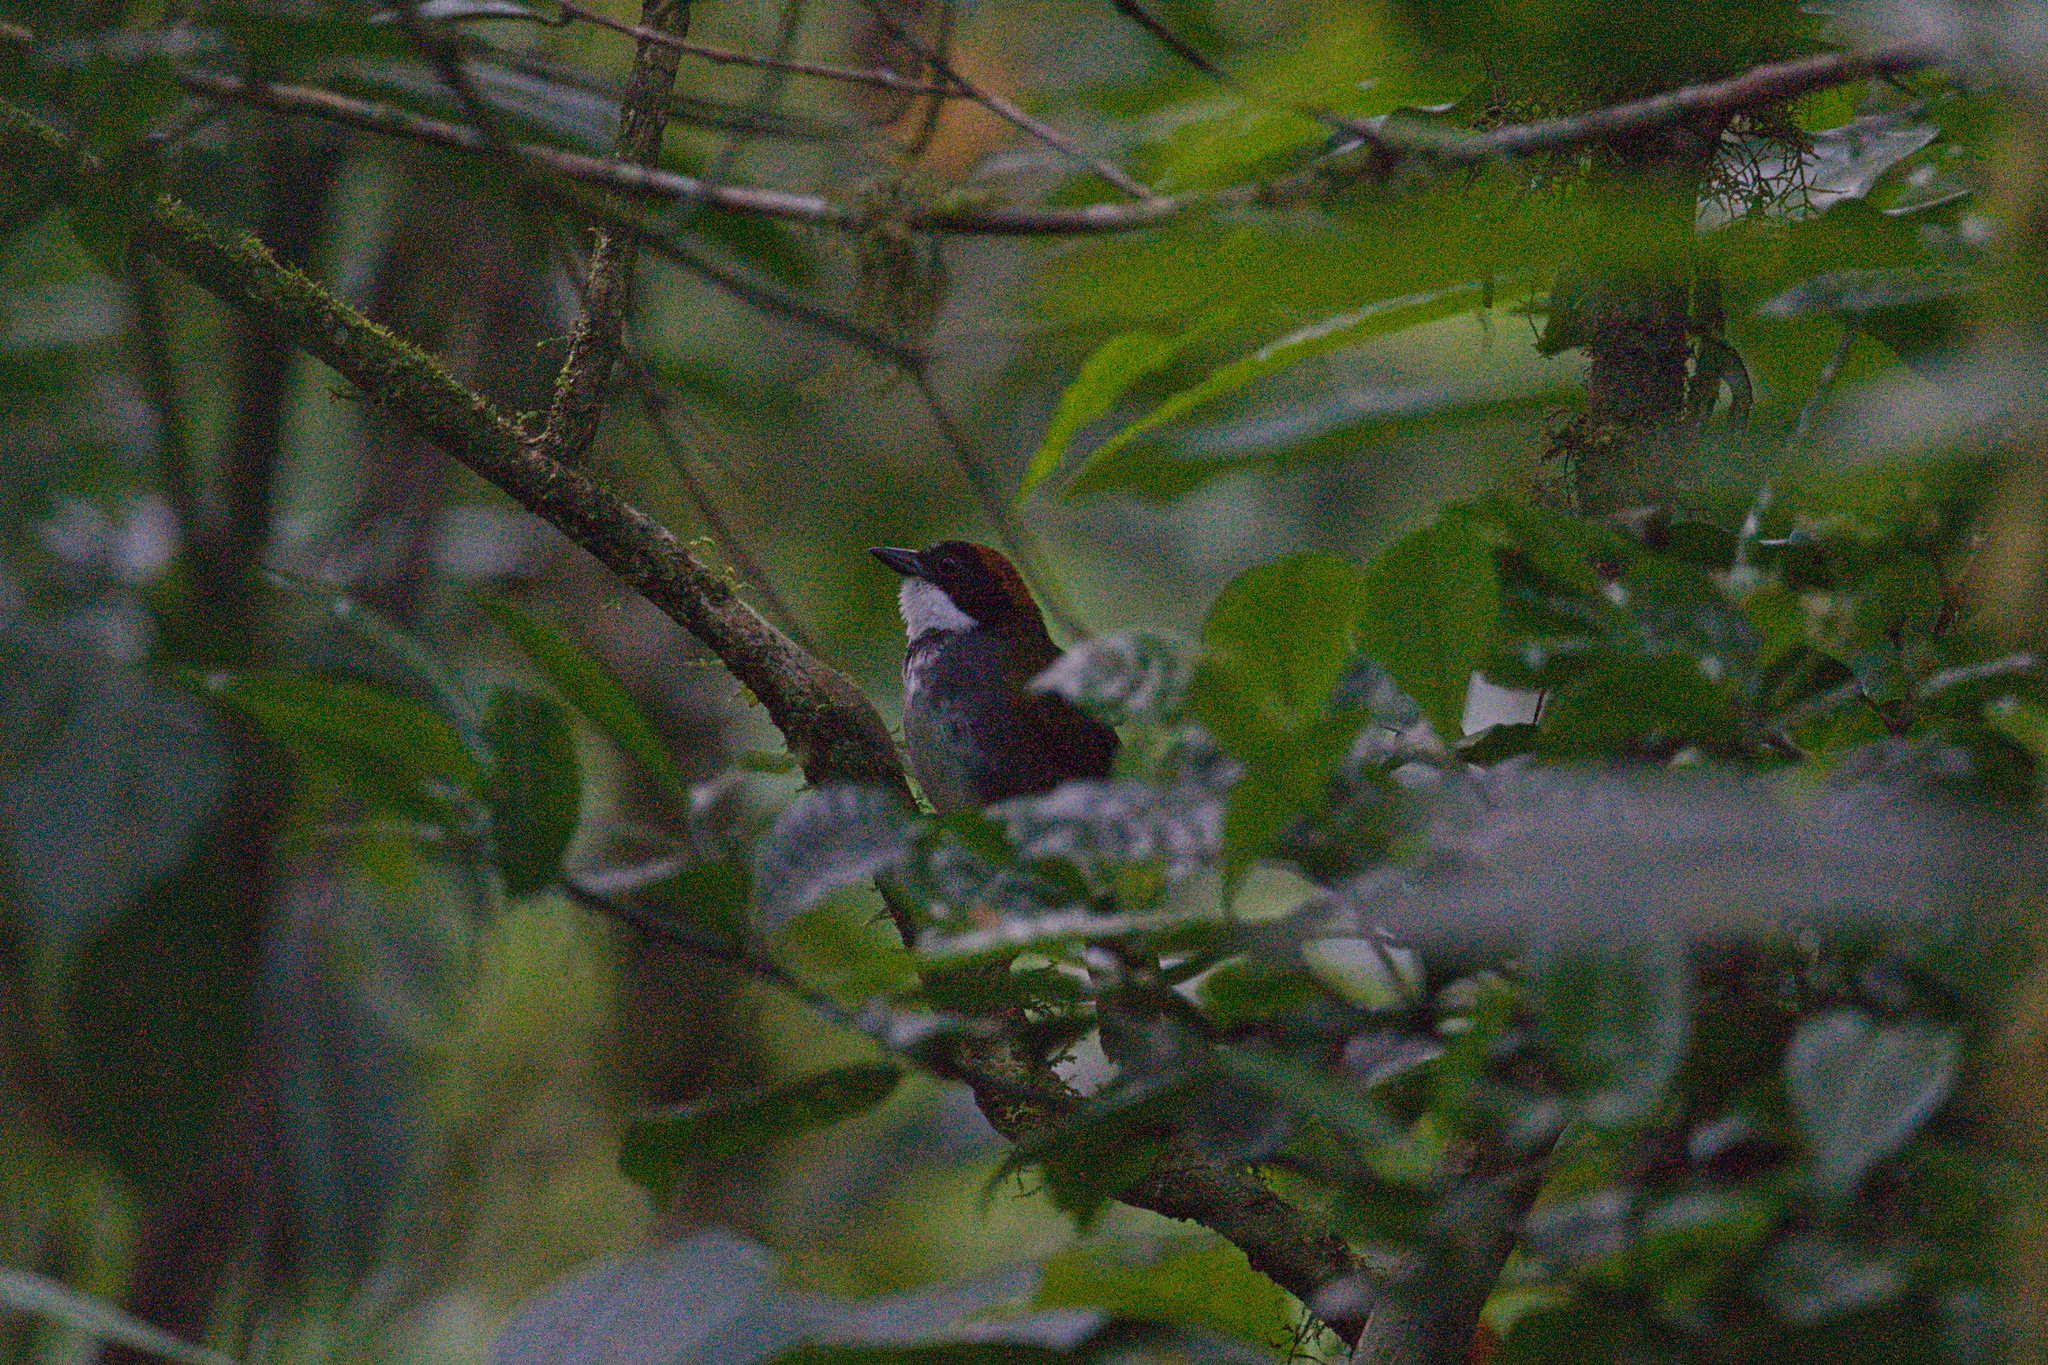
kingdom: Animalia
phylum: Chordata
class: Aves
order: Passeriformes
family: Passerellidae
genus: Arremon
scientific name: Arremon brunneinucha
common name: Chestnut-capped brushfinch
